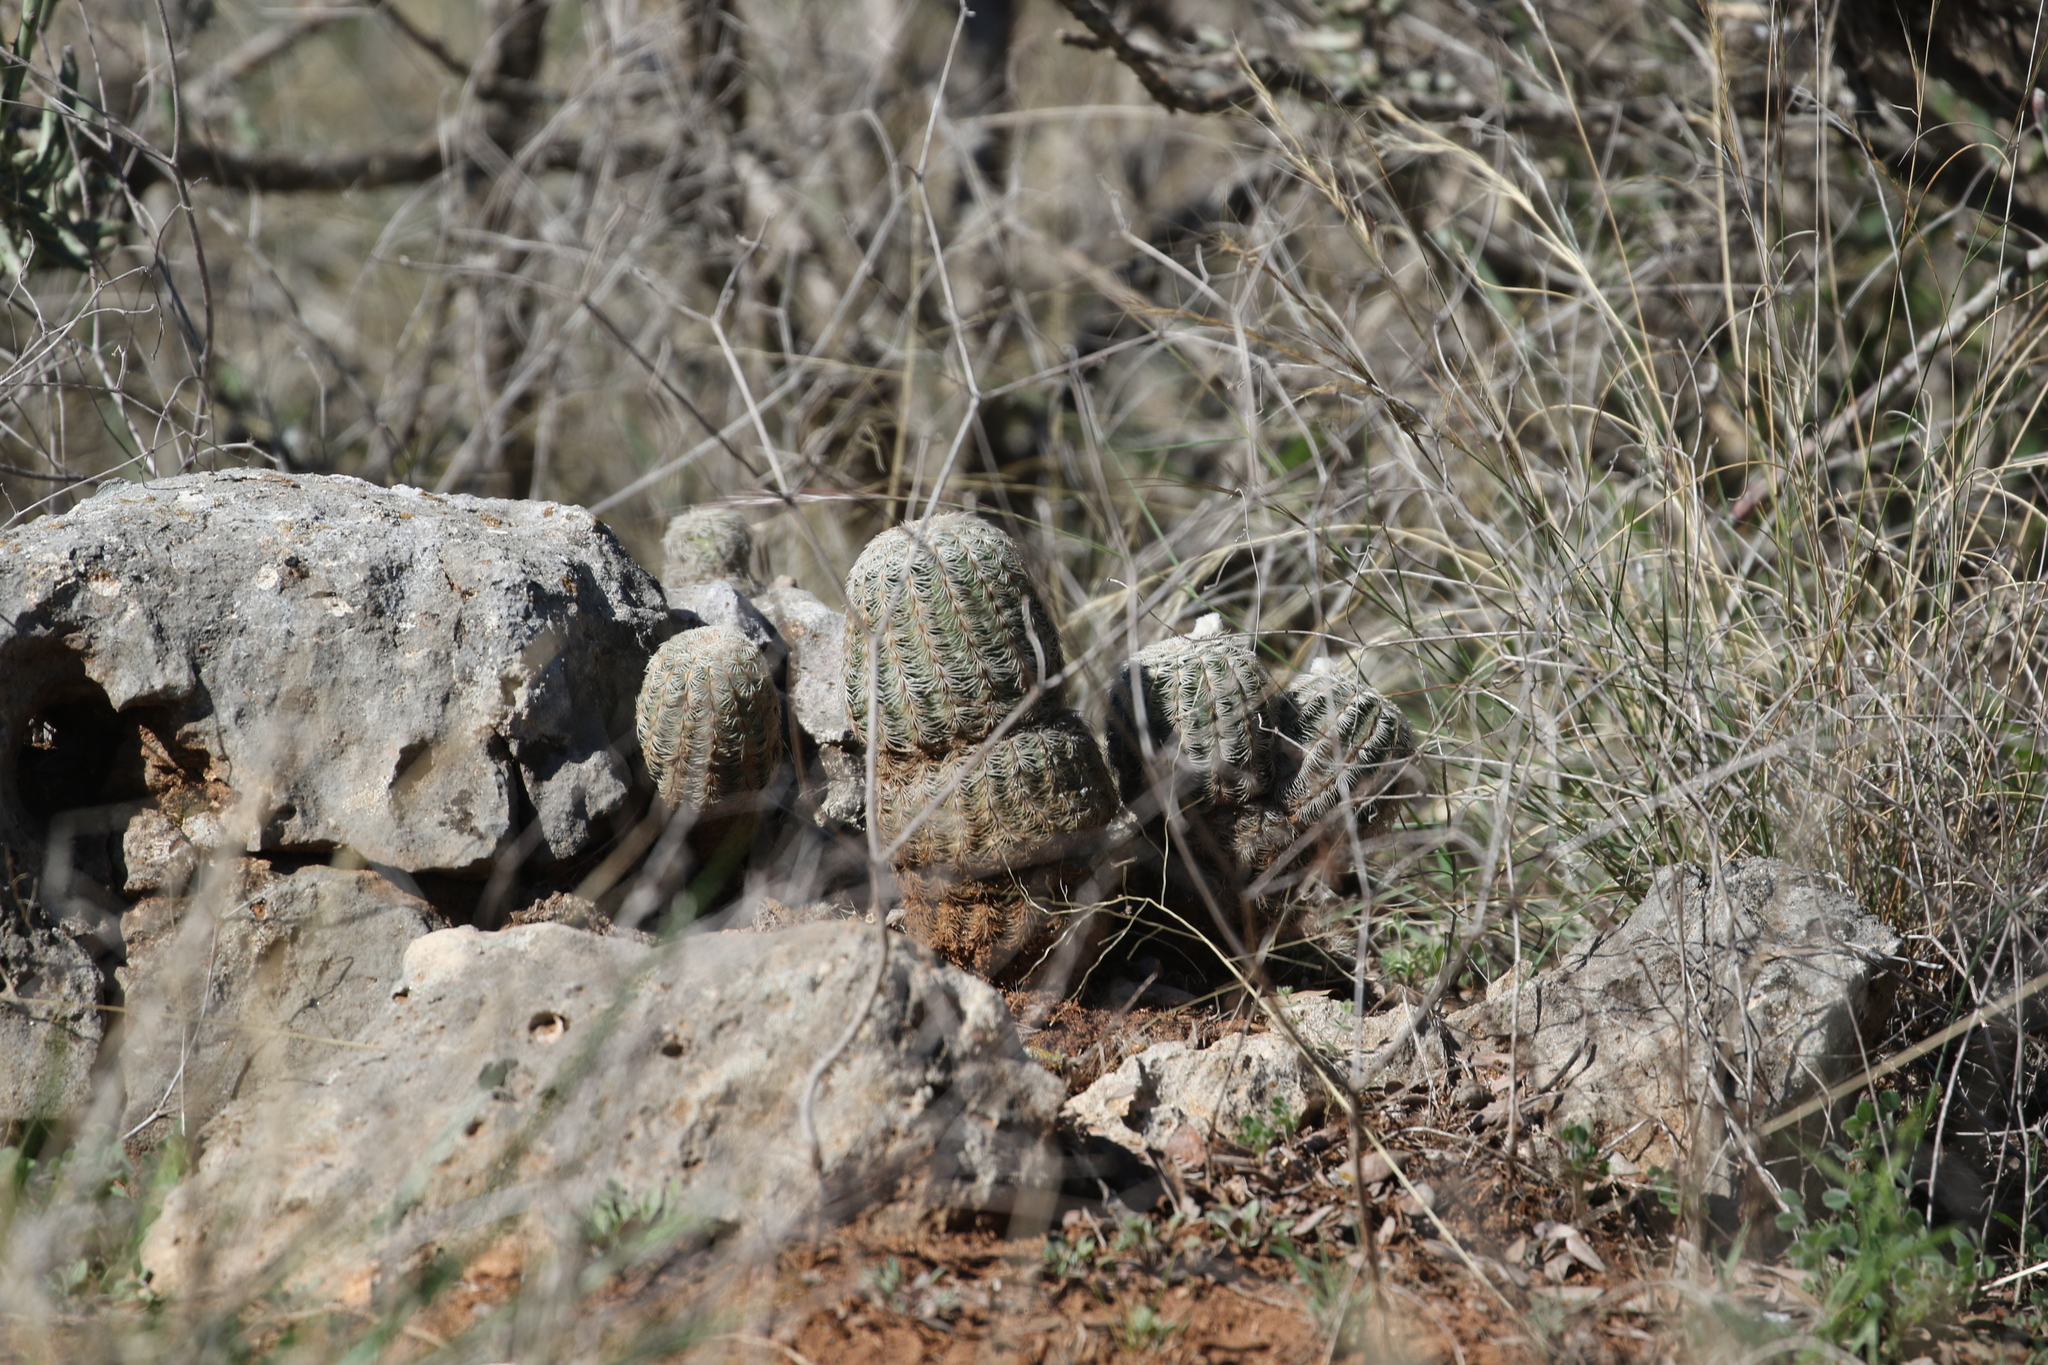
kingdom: Plantae
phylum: Tracheophyta
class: Magnoliopsida
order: Caryophyllales
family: Cactaceae
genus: Echinocereus
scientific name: Echinocereus reichenbachii
